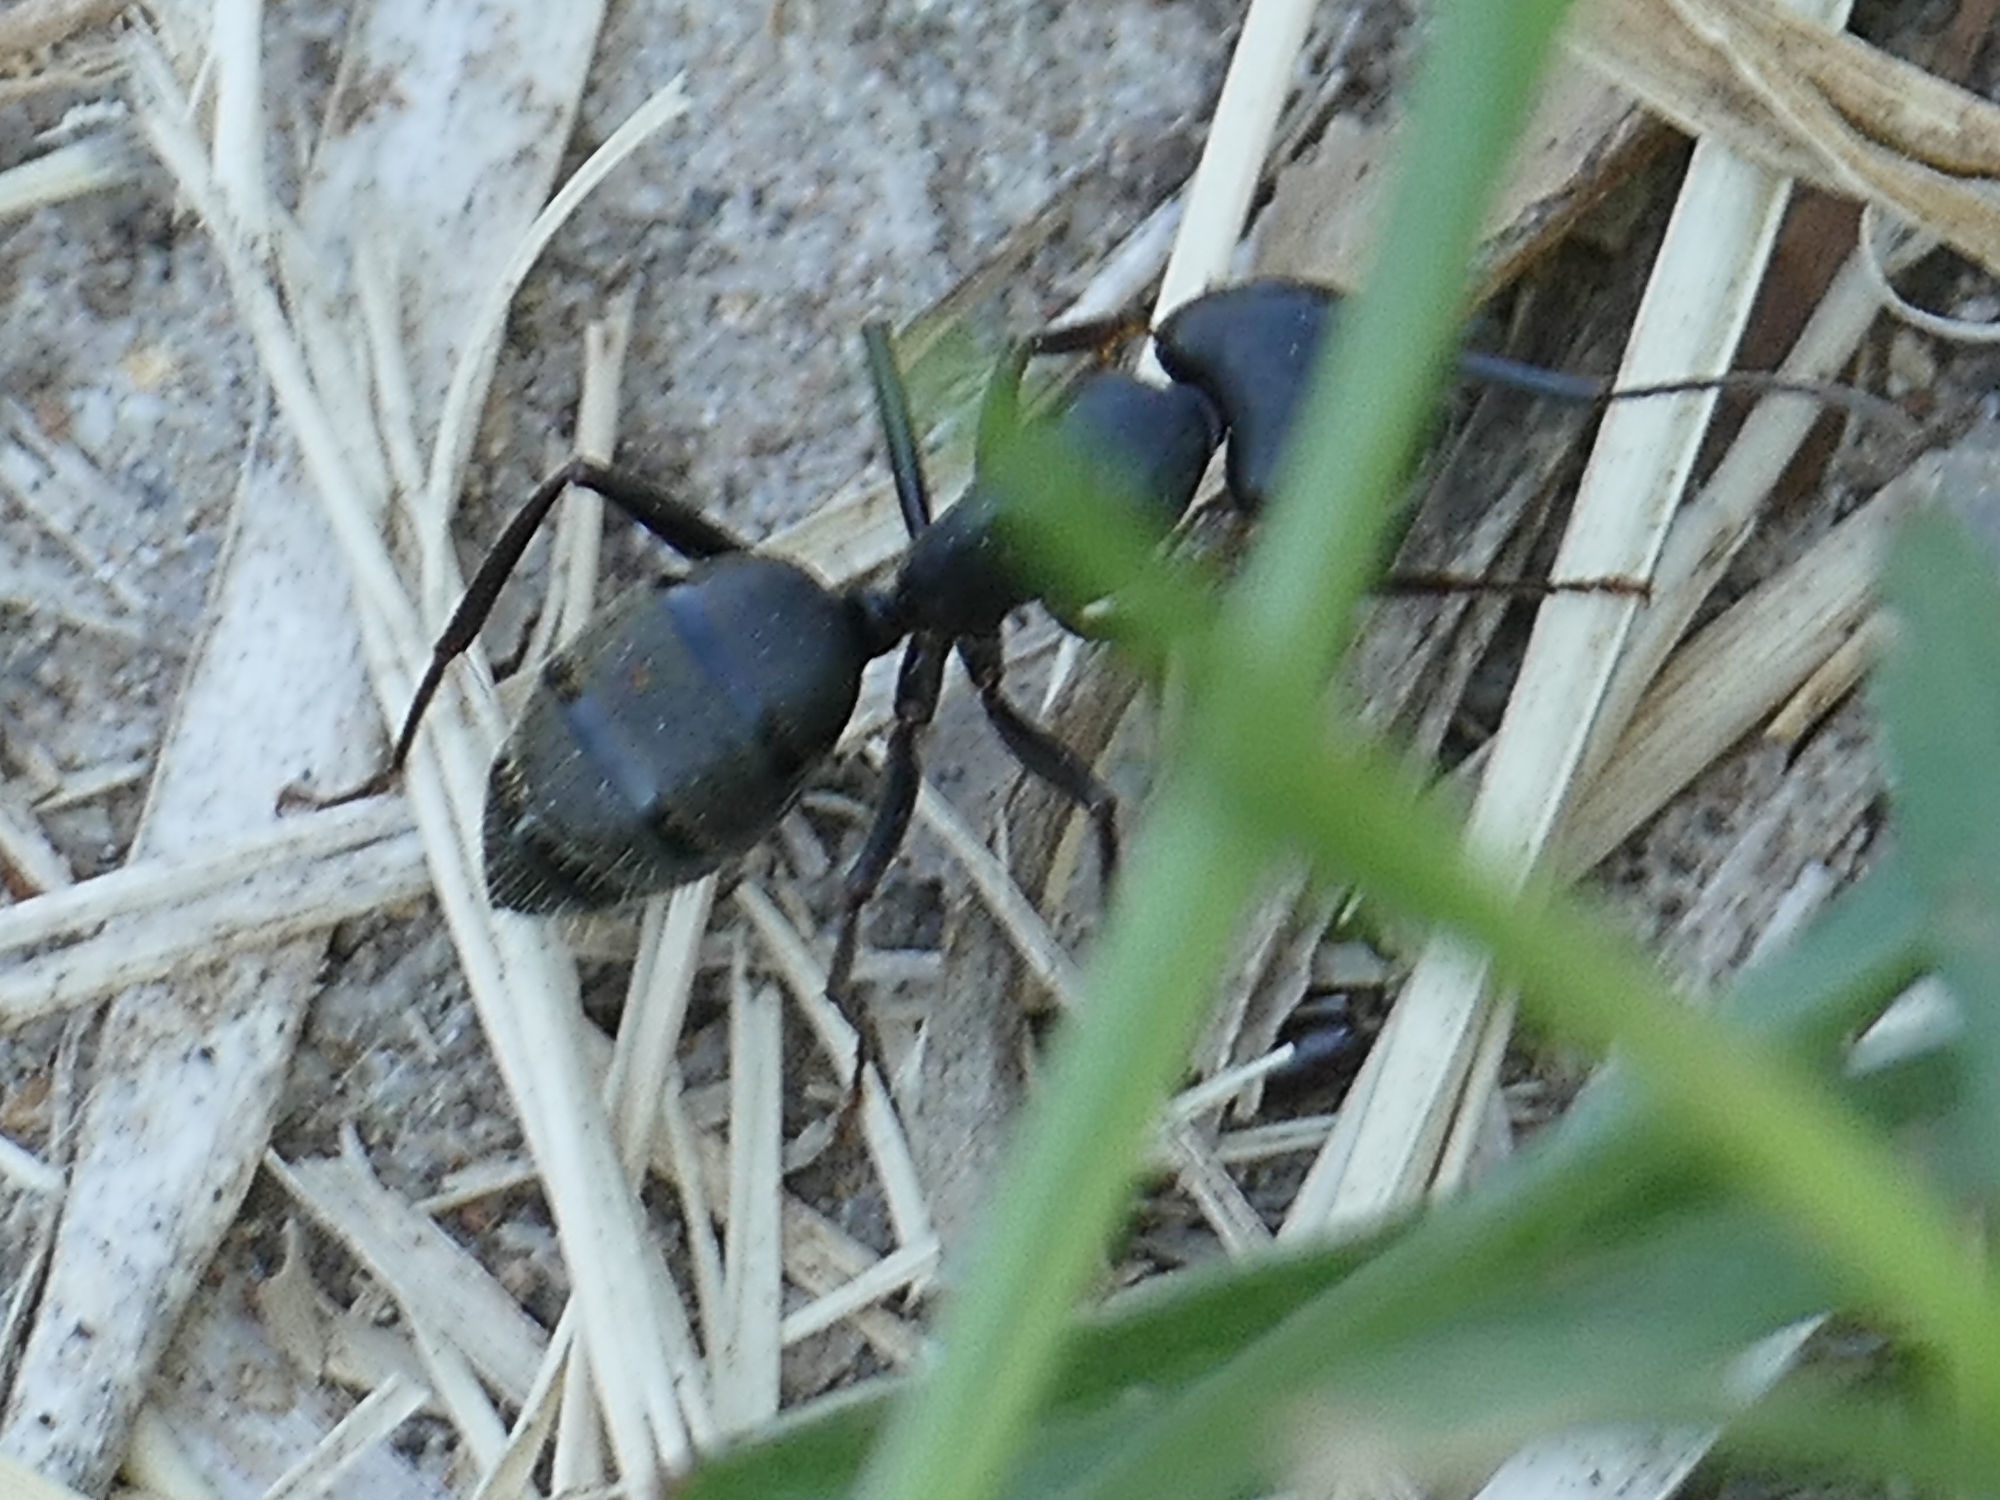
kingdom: Animalia
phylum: Arthropoda
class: Insecta
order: Hymenoptera
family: Formicidae
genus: Camponotus
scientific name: Camponotus pennsylvanicus
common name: Black carpenter ant
